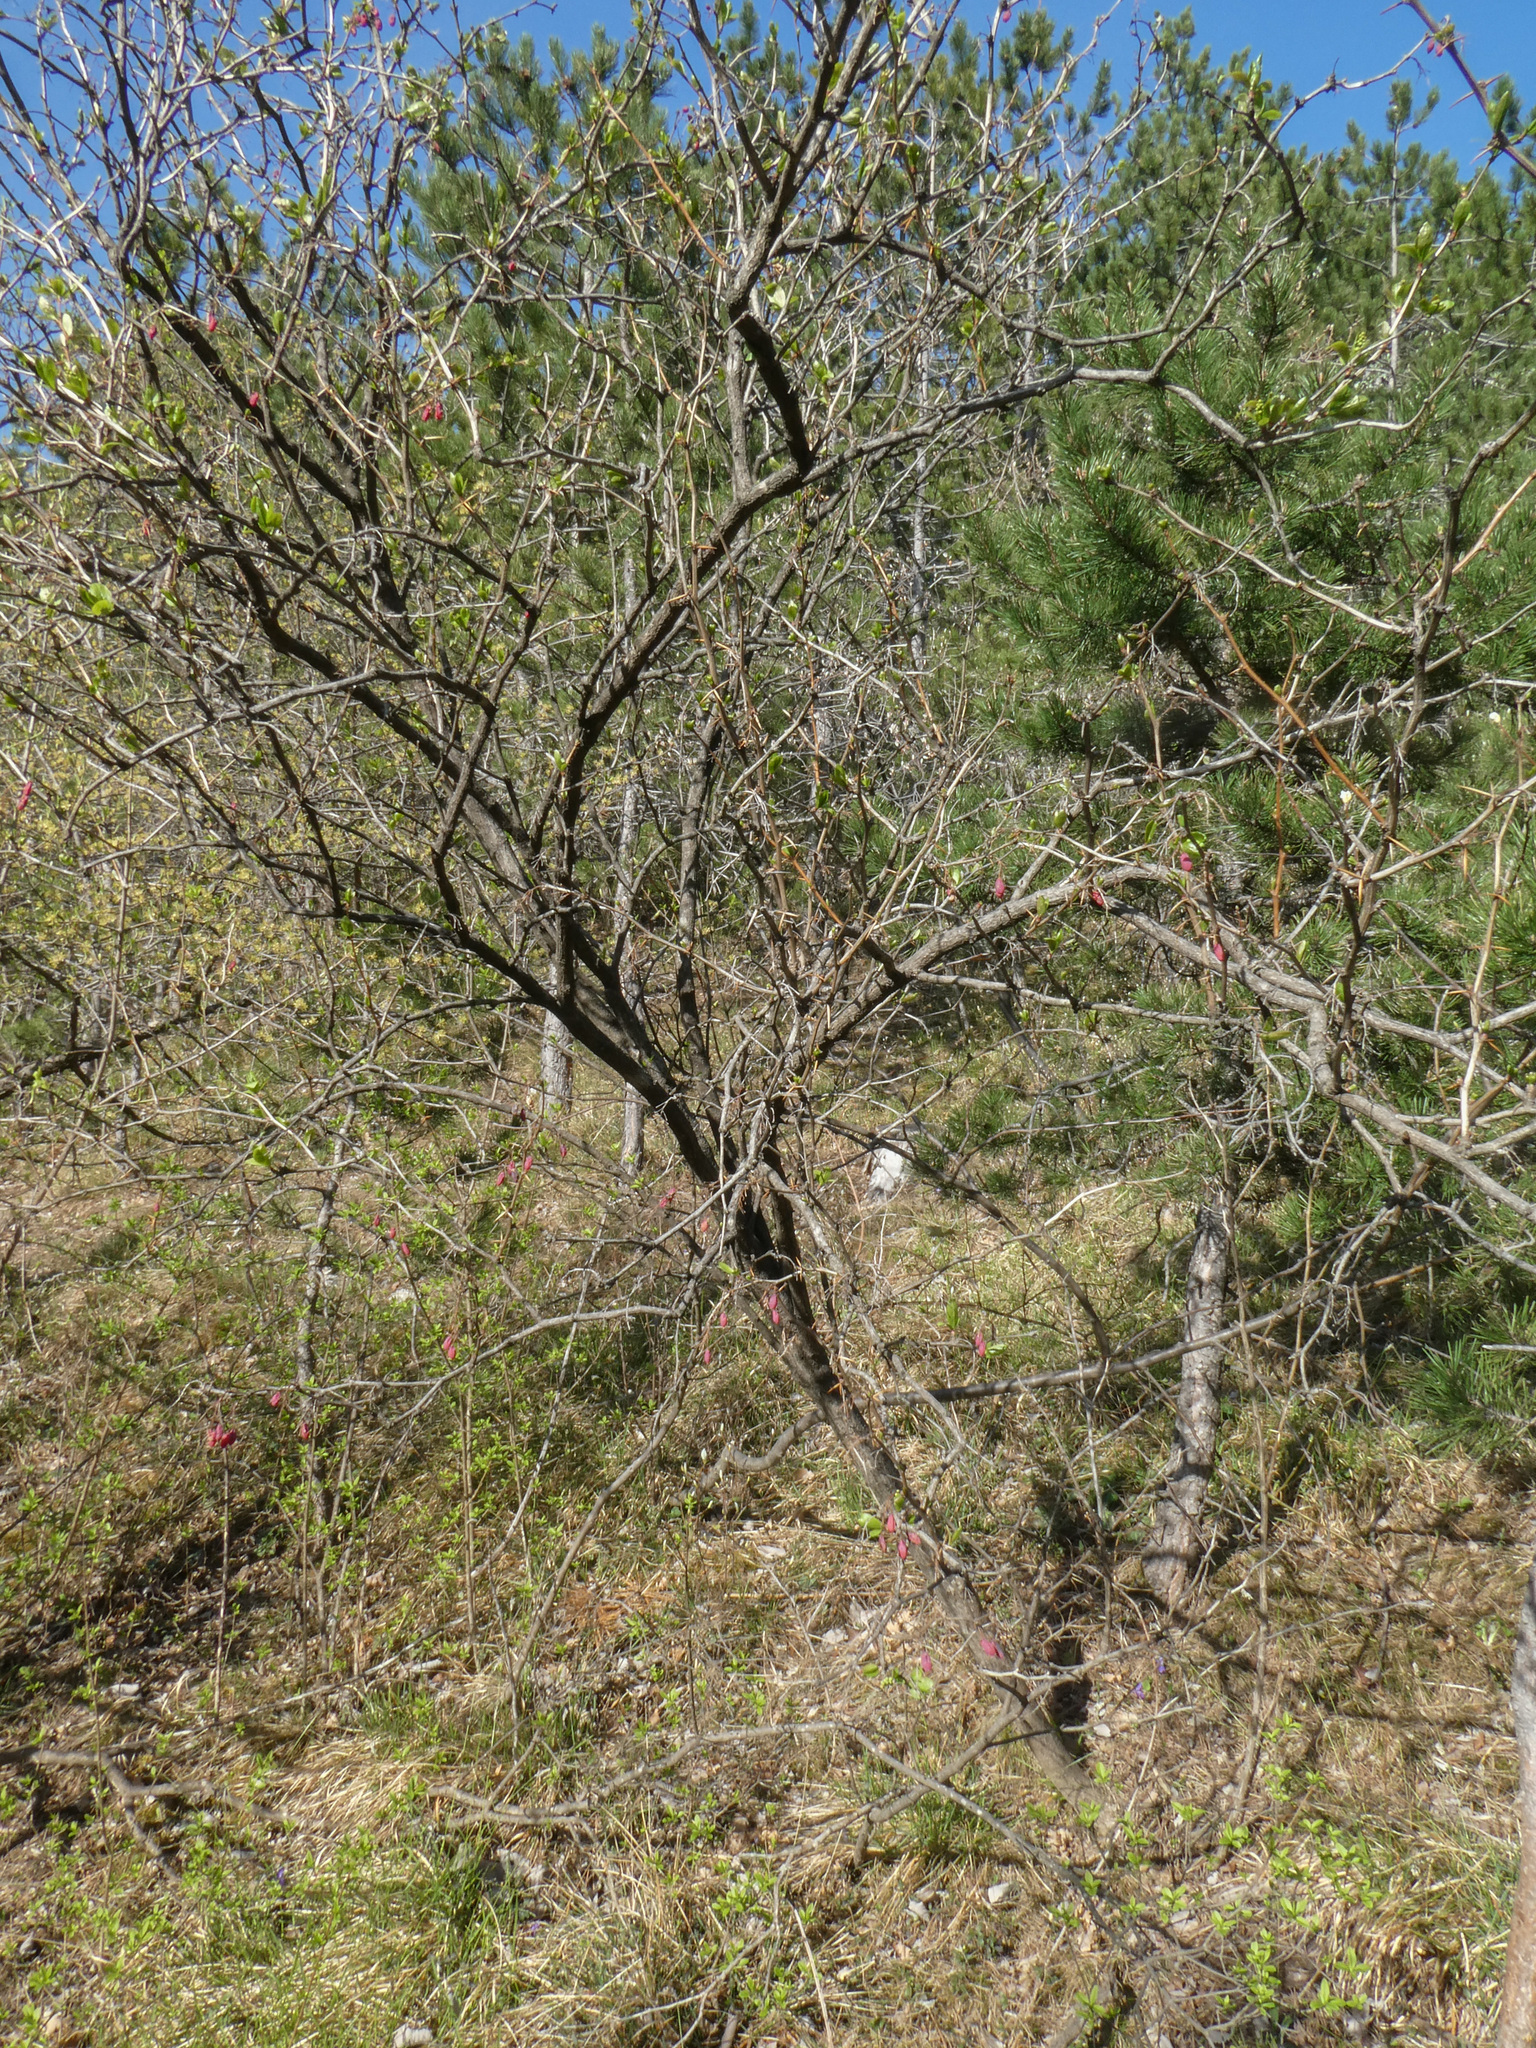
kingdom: Plantae
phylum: Tracheophyta
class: Magnoliopsida
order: Ranunculales
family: Berberidaceae
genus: Berberis
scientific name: Berberis vulgaris
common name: Barberry
